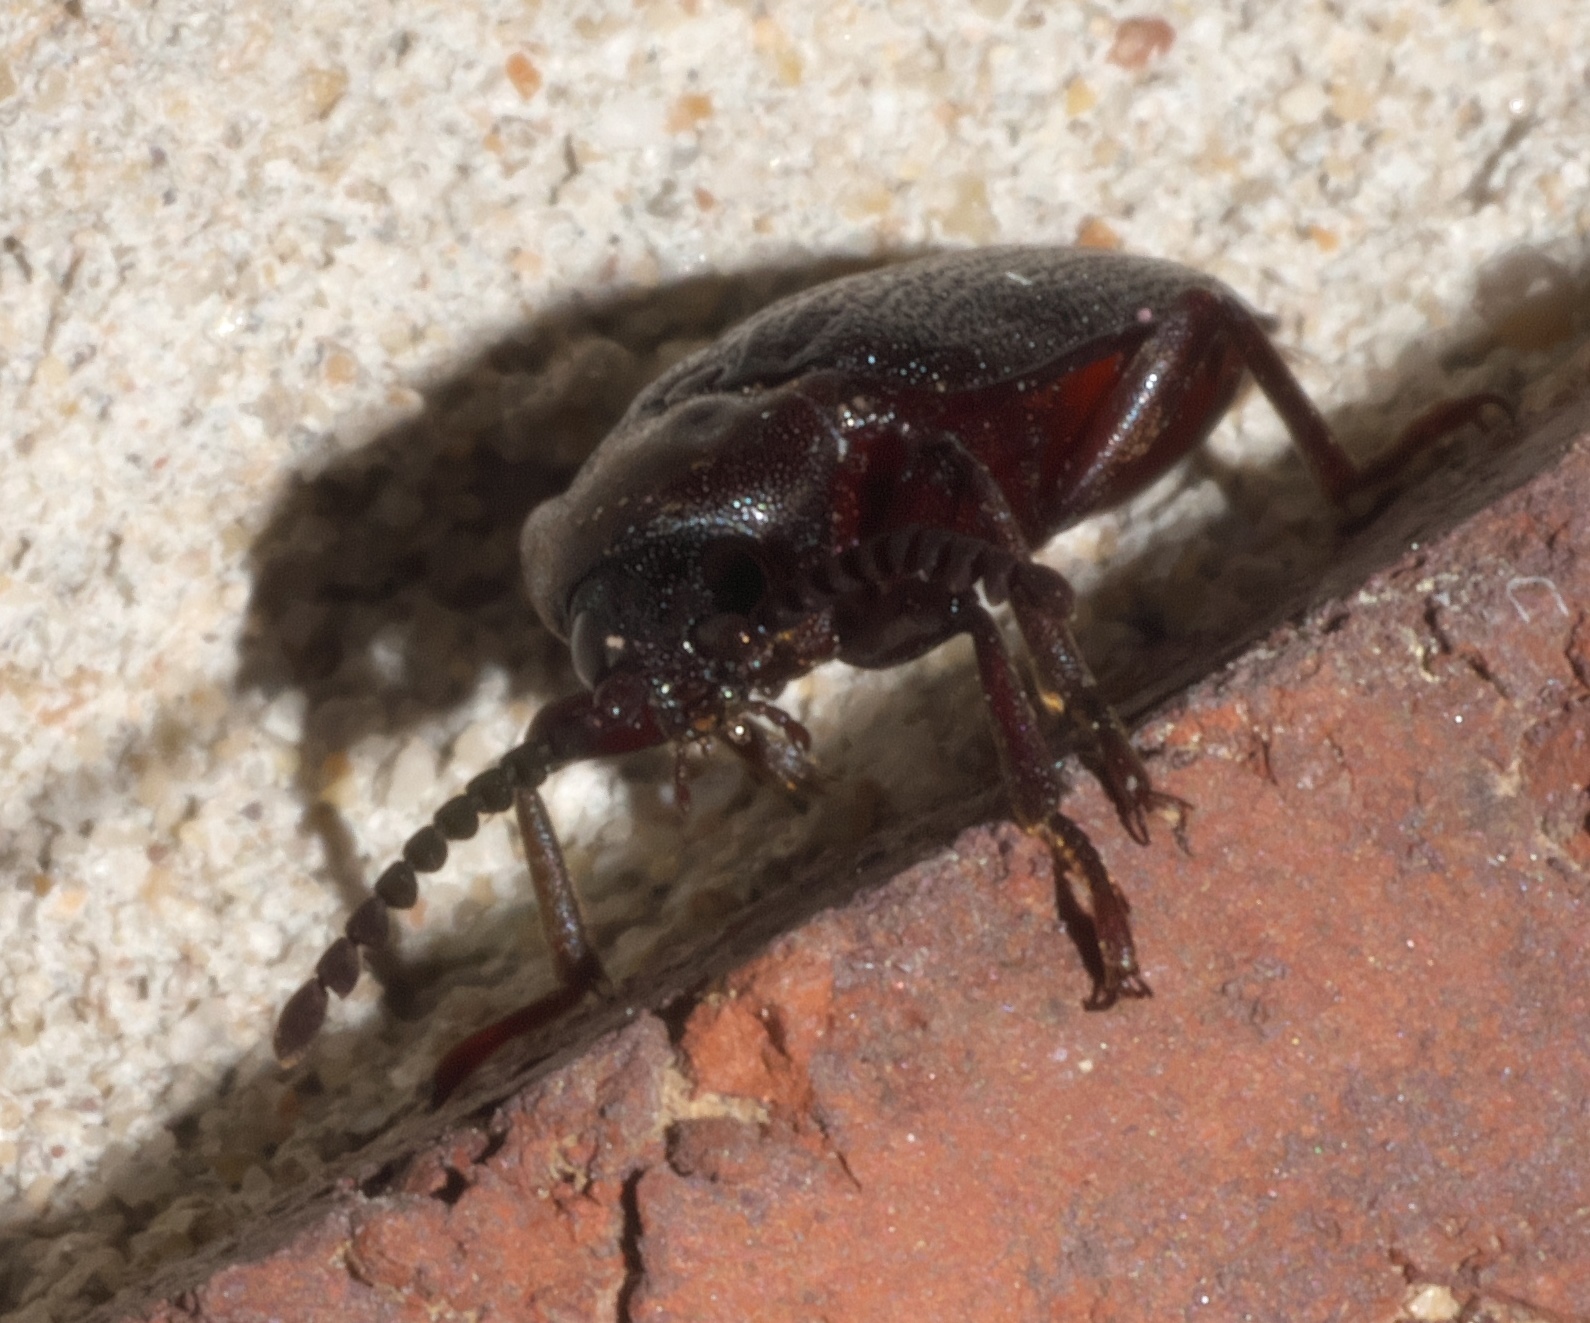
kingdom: Animalia
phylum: Arthropoda
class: Insecta
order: Coleoptera
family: Callirhipidae
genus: Zenoa
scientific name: Zenoa picea
